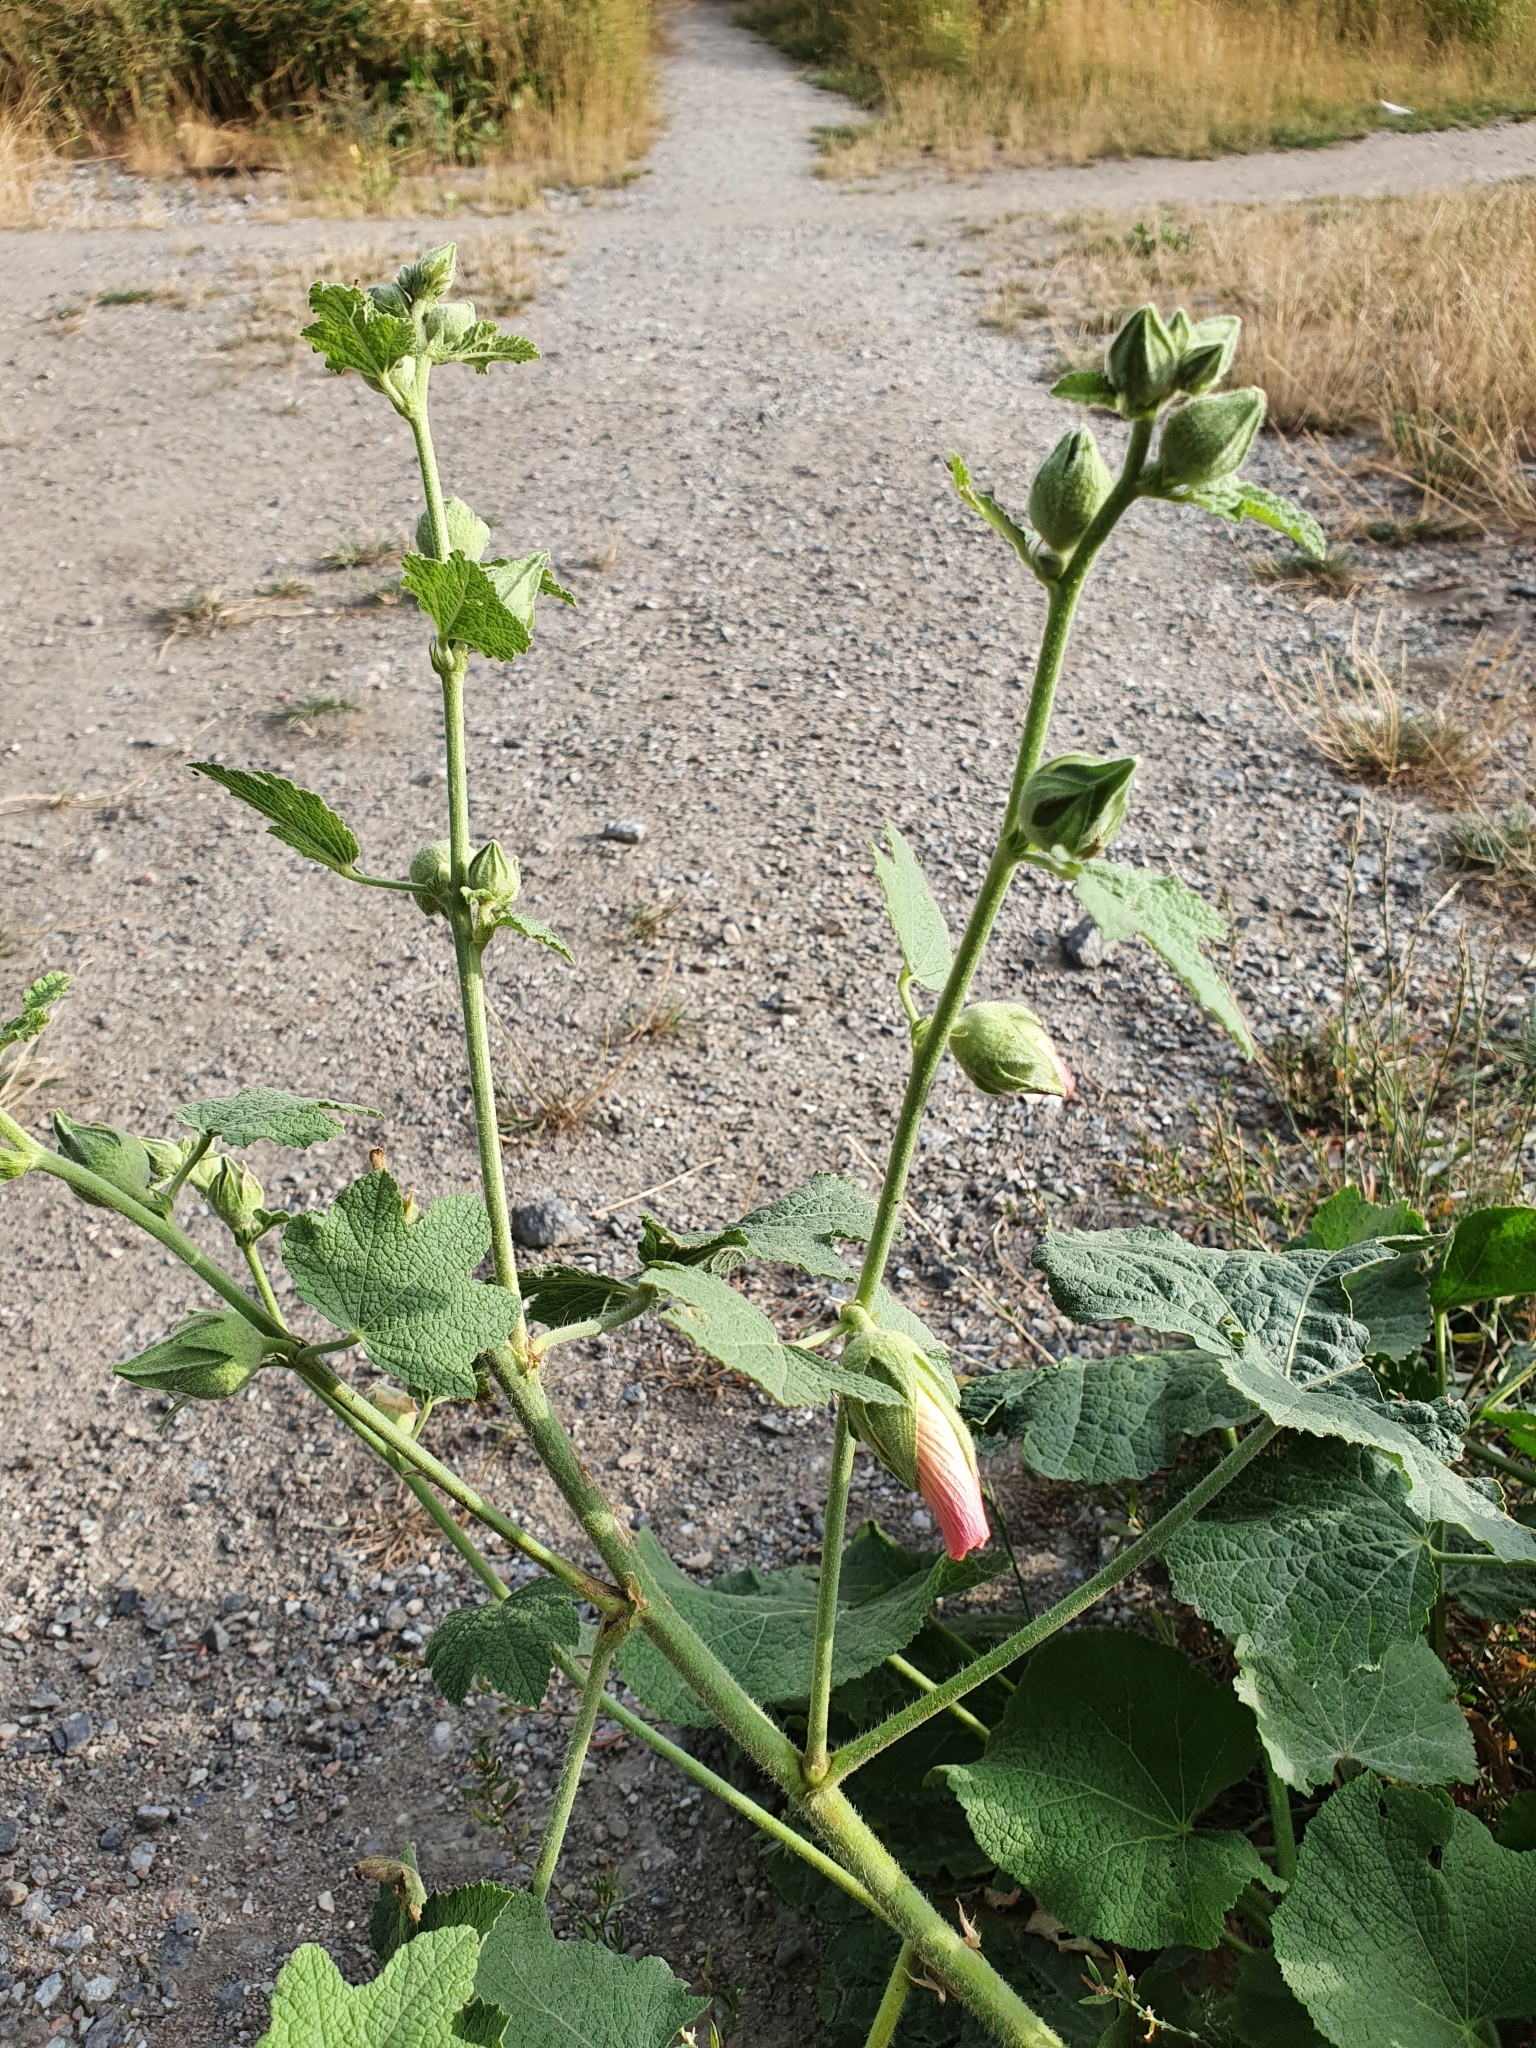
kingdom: Plantae
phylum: Tracheophyta
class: Magnoliopsida
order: Malvales
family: Malvaceae
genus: Alcea
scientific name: Alcea rosea
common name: Hollyhock
